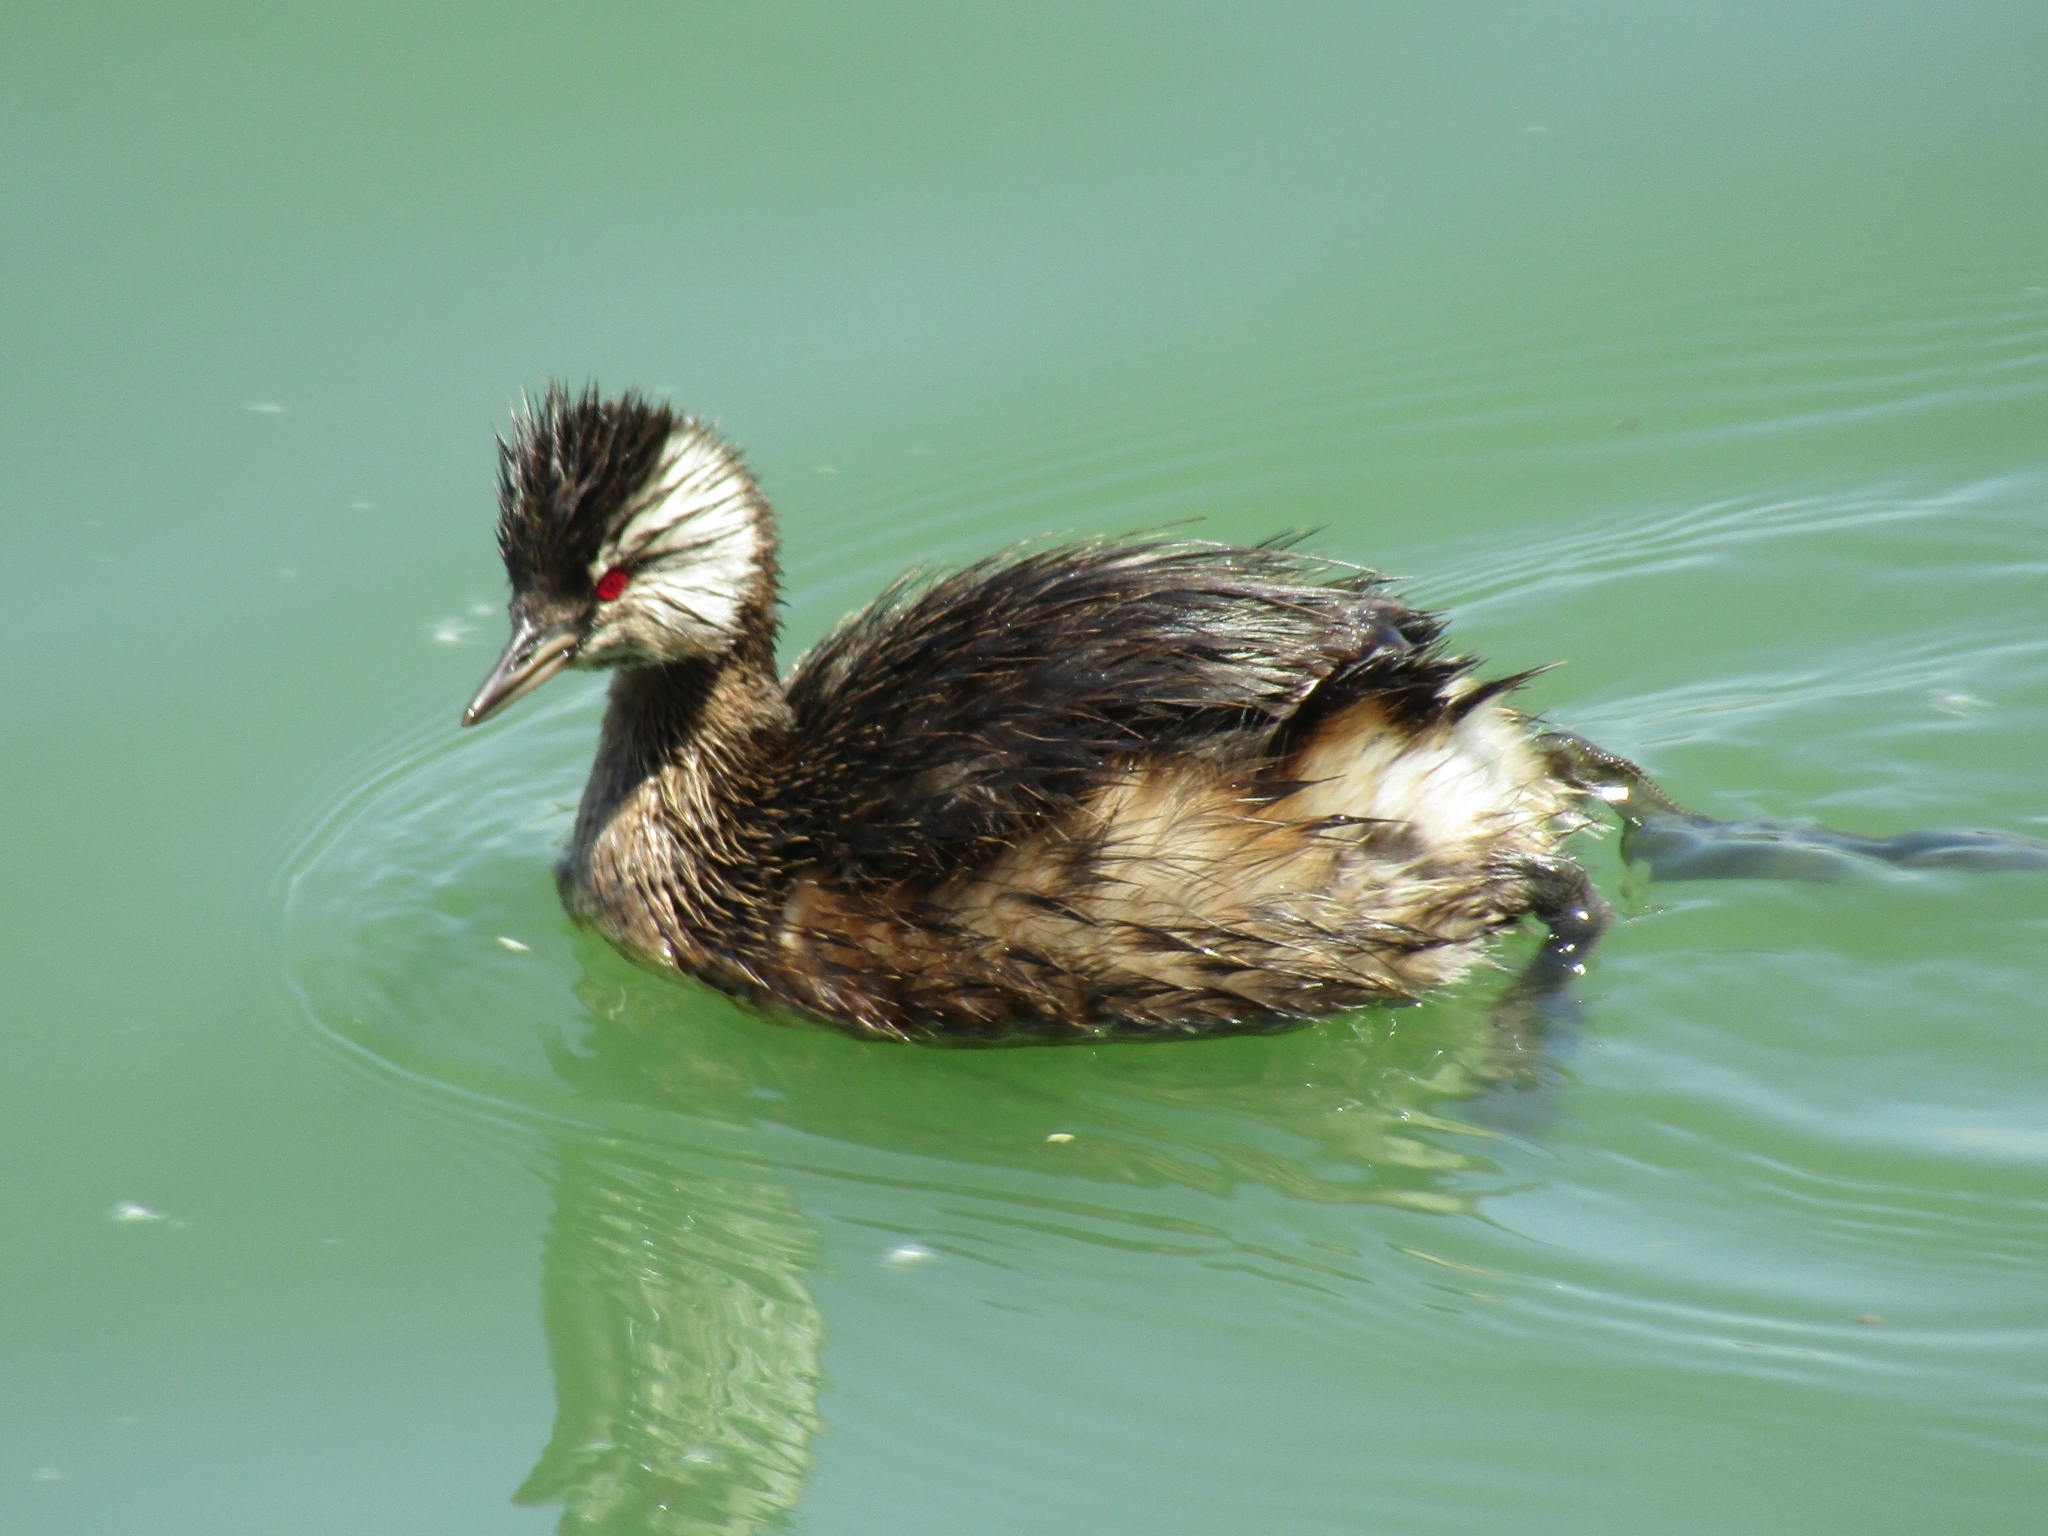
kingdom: Animalia
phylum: Chordata
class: Aves
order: Podicipediformes
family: Podicipedidae
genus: Rollandia
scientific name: Rollandia rolland
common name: White-tufted grebe
